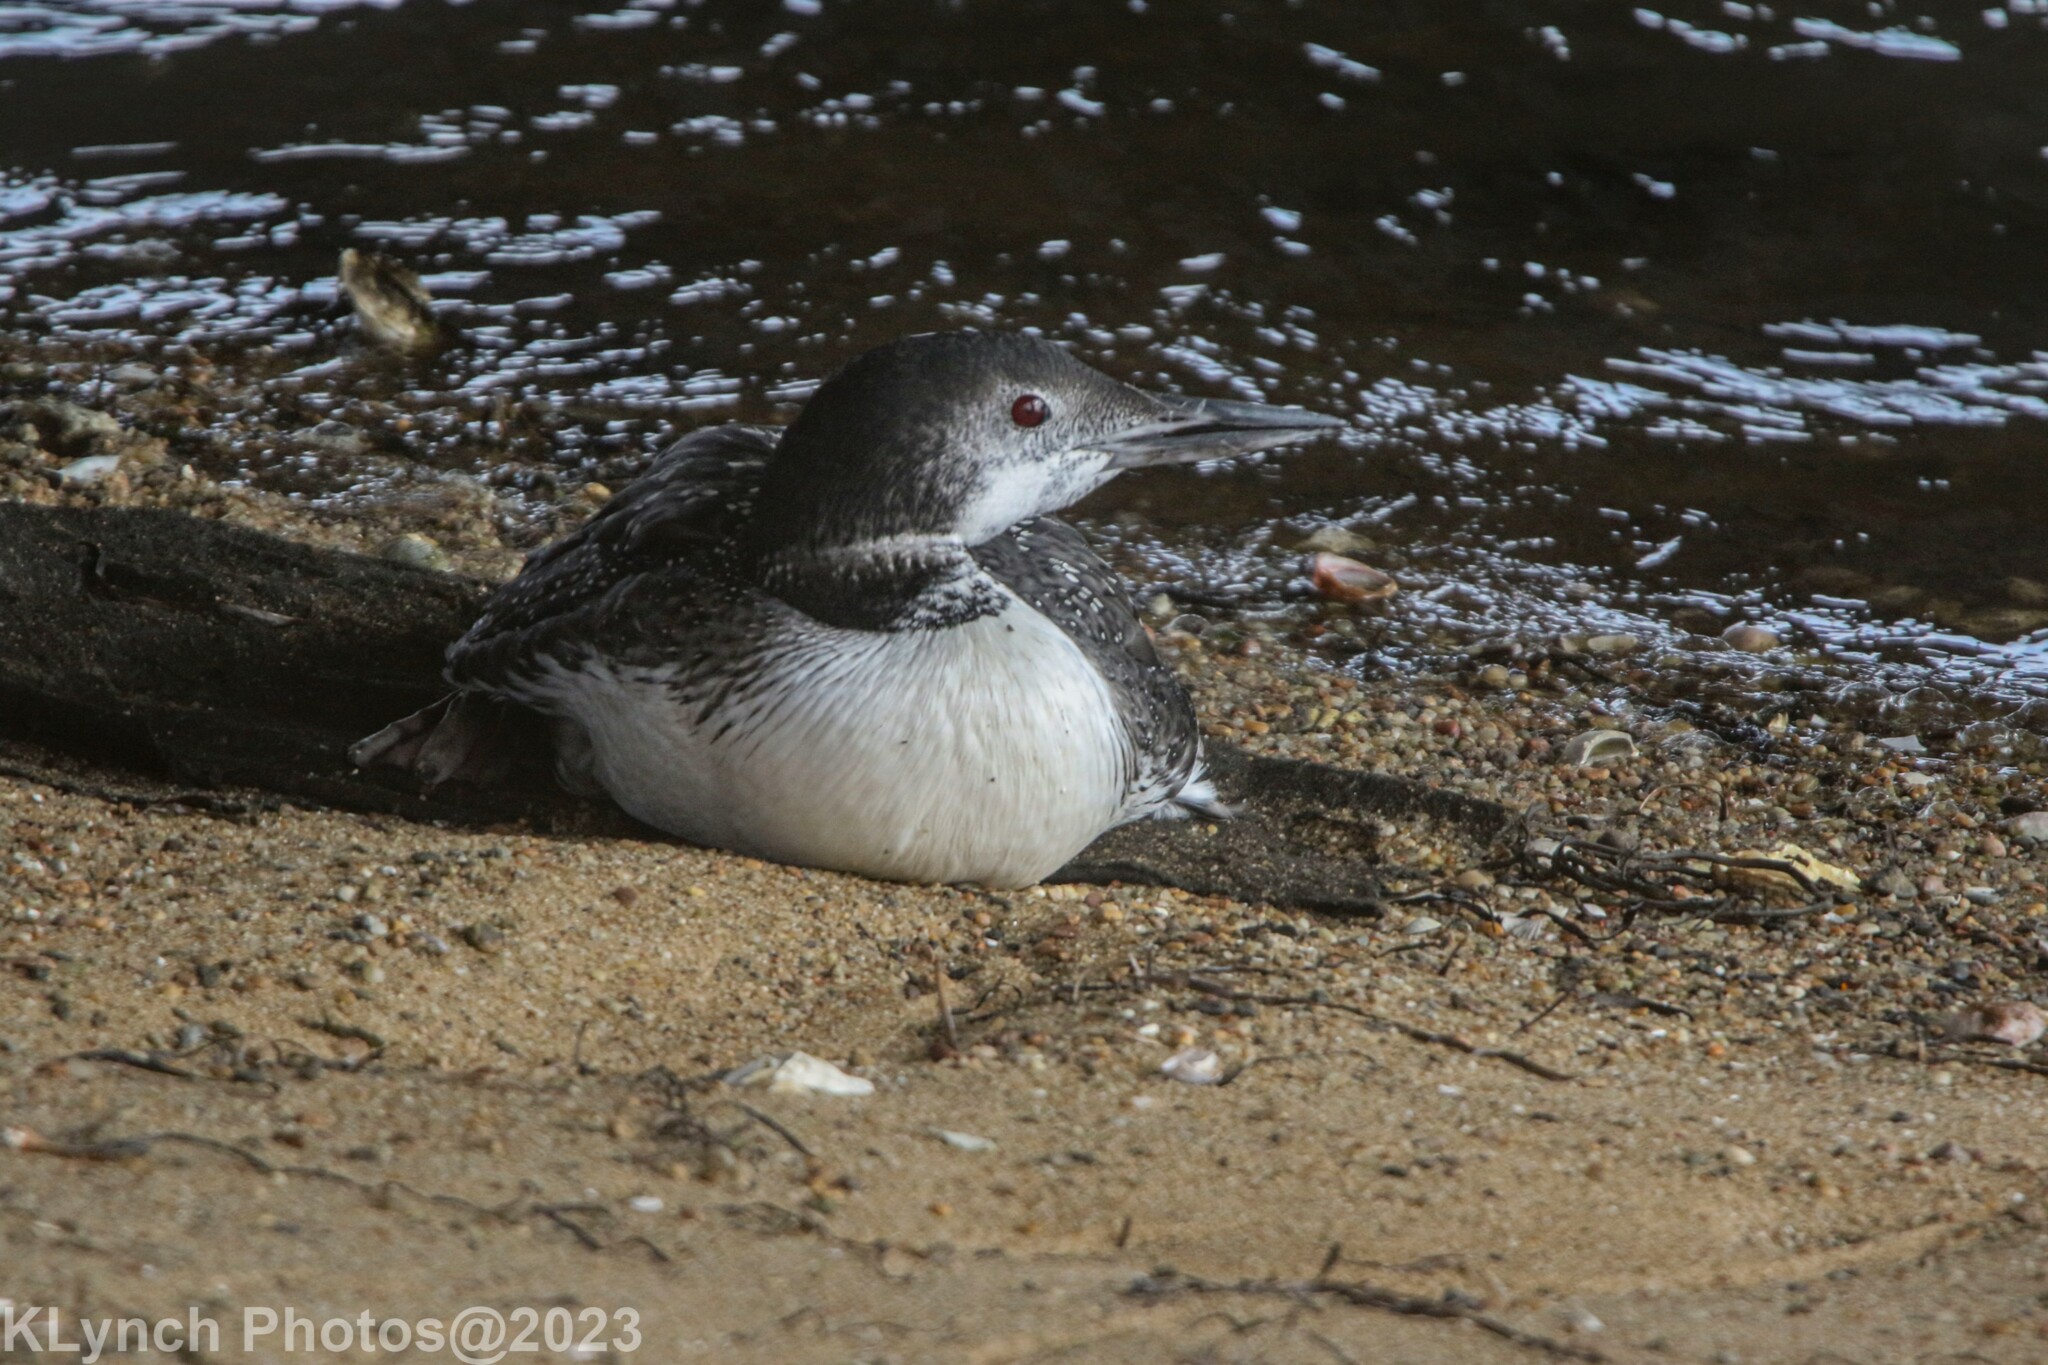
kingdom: Animalia
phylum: Chordata
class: Aves
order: Gaviiformes
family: Gaviidae
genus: Gavia
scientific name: Gavia immer
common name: Common loon
